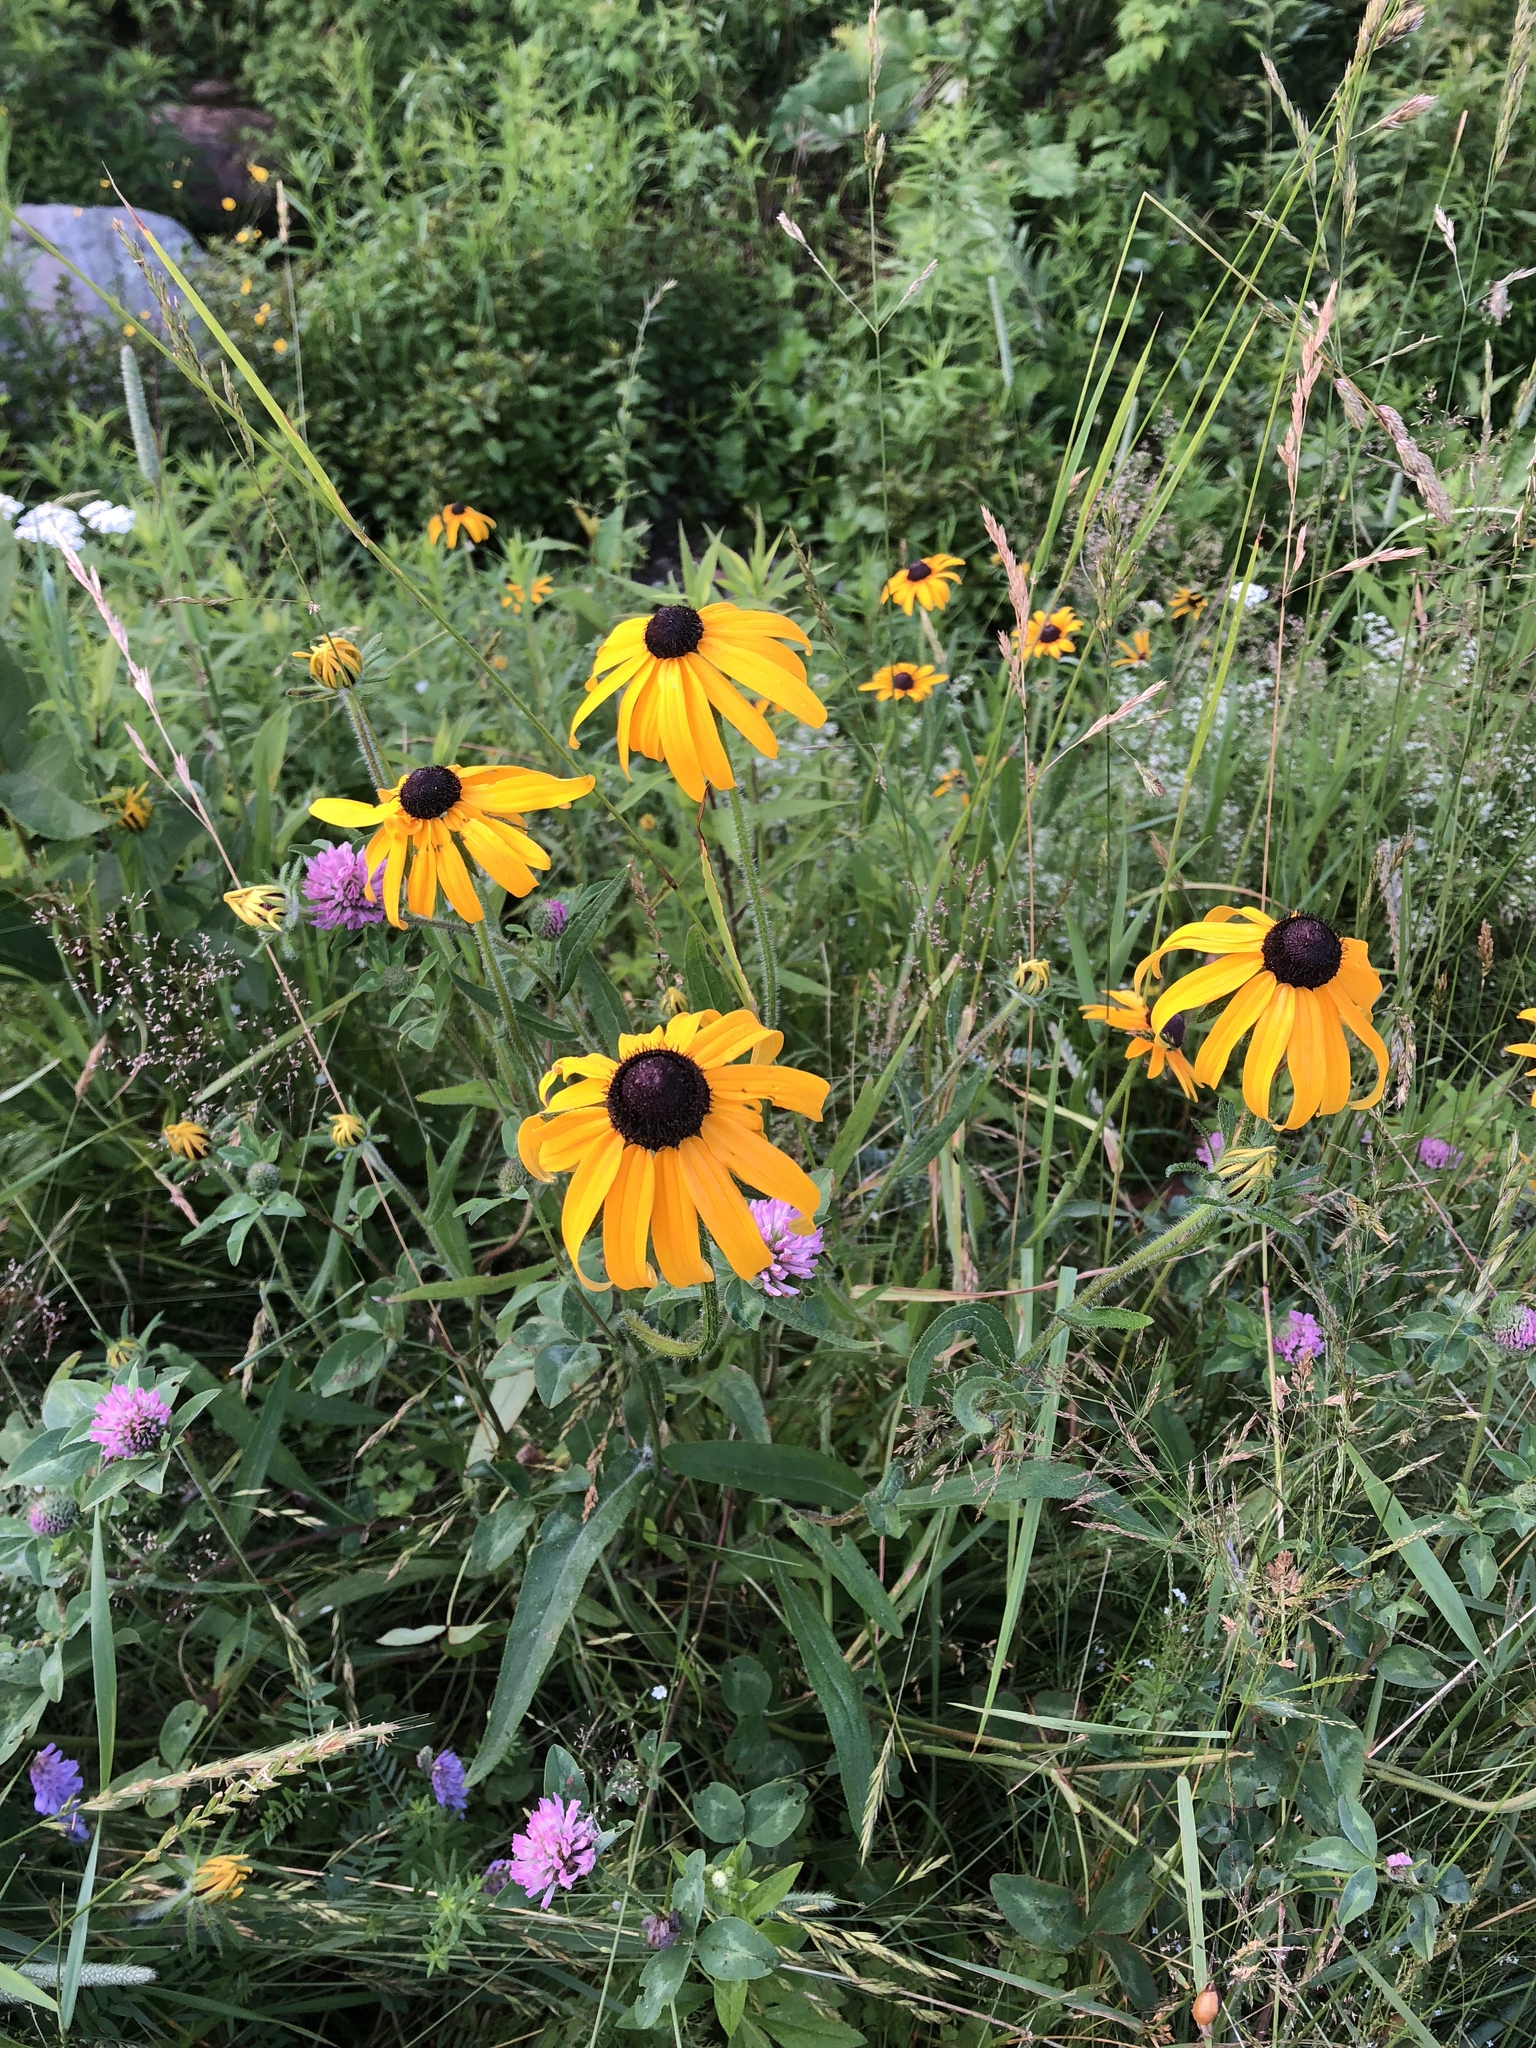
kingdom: Plantae
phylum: Tracheophyta
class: Magnoliopsida
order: Asterales
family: Asteraceae
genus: Rudbeckia
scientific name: Rudbeckia hirta
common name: Black-eyed-susan
